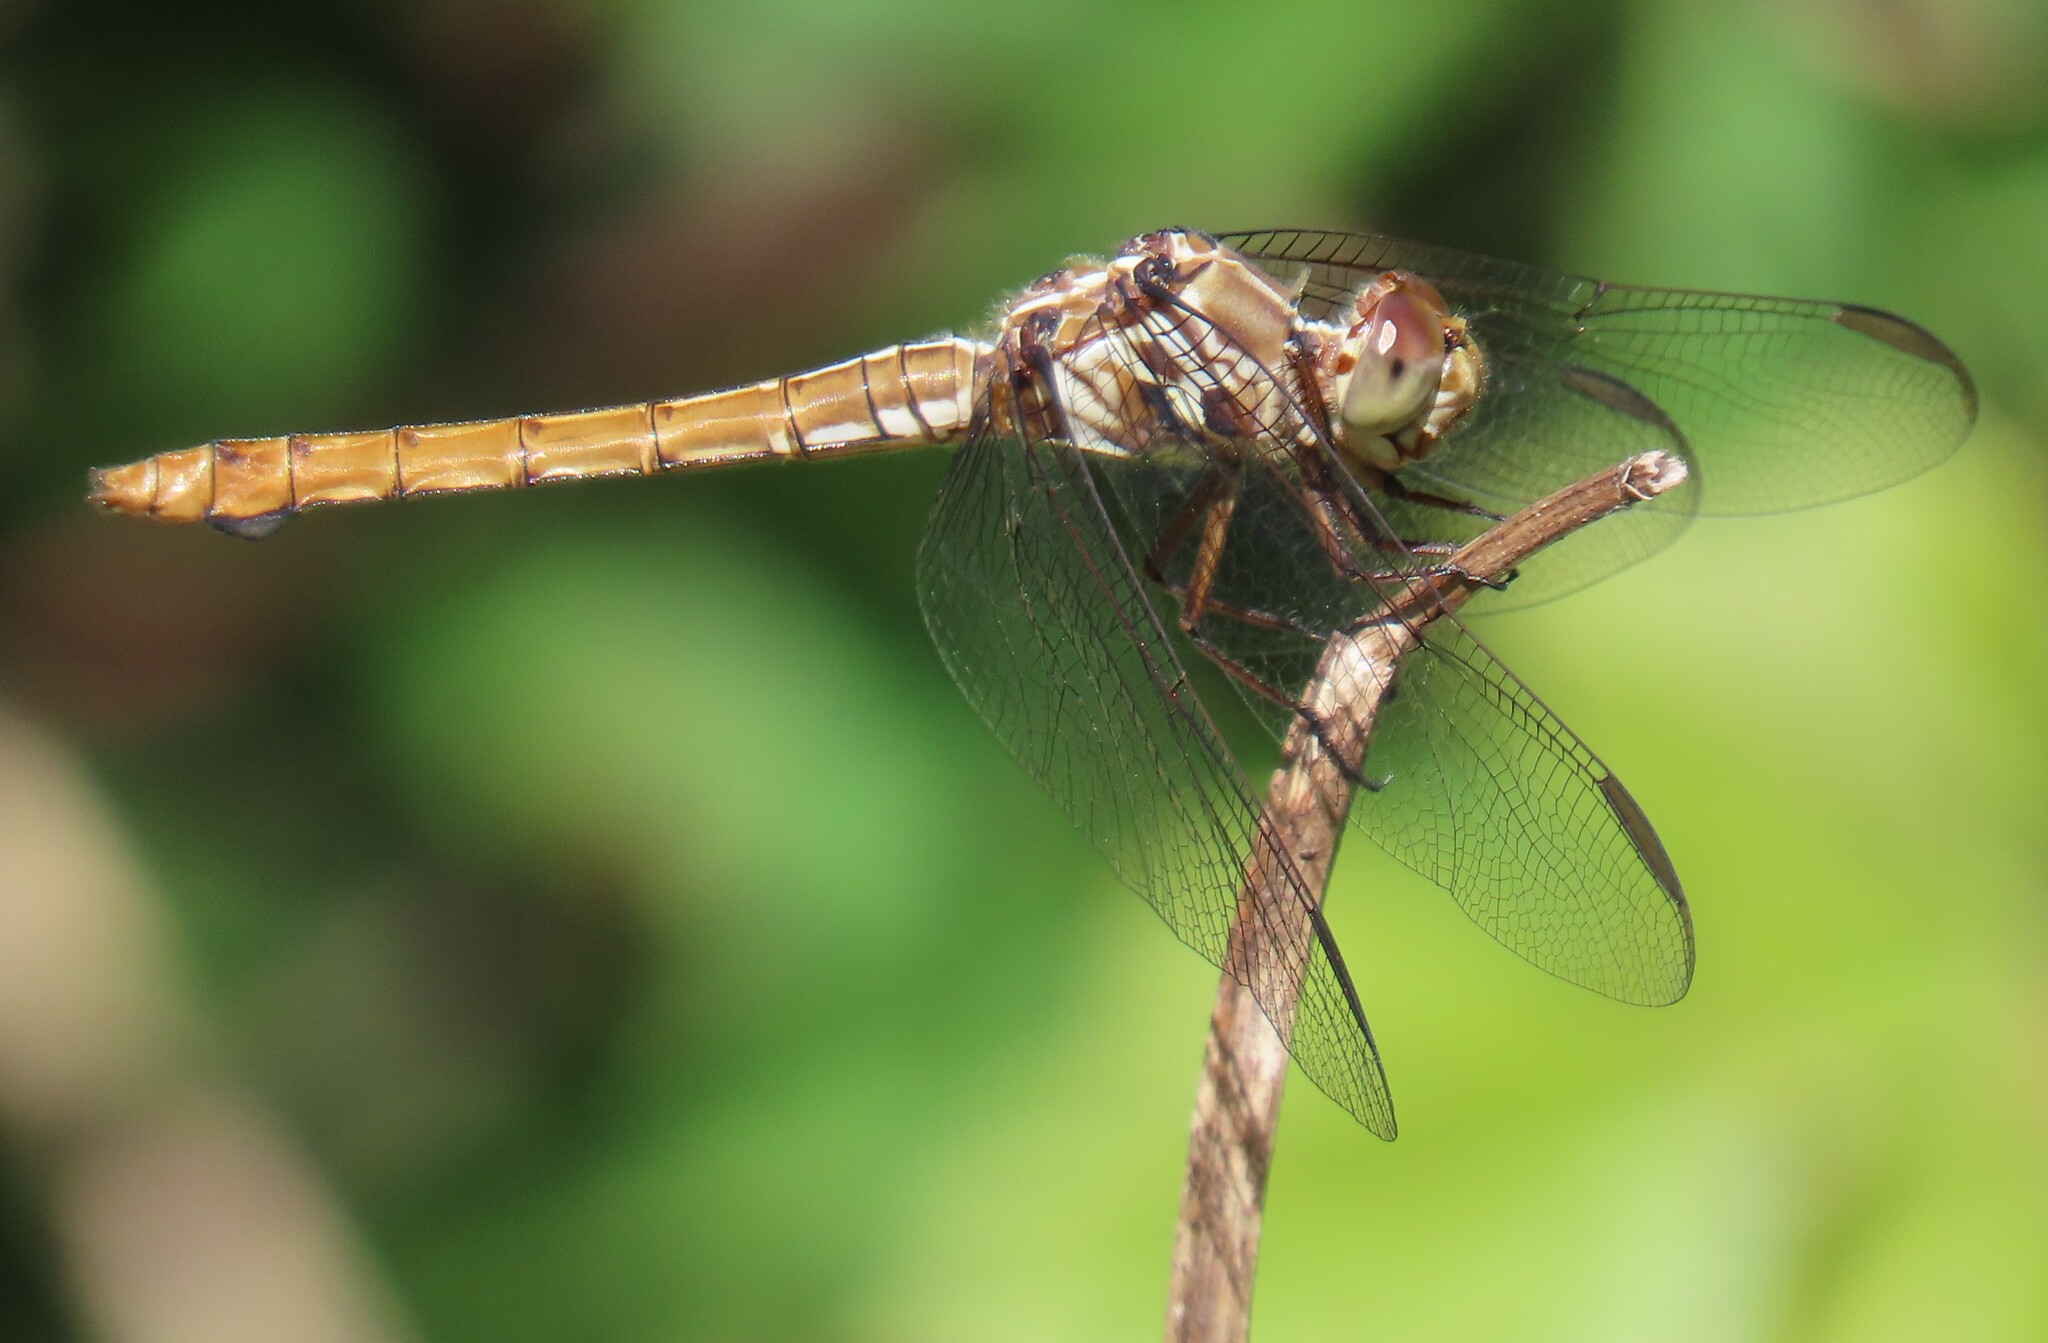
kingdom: Animalia
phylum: Arthropoda
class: Insecta
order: Odonata
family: Libellulidae
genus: Orthemis
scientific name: Orthemis ferruginea
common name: Roseate skimmer
